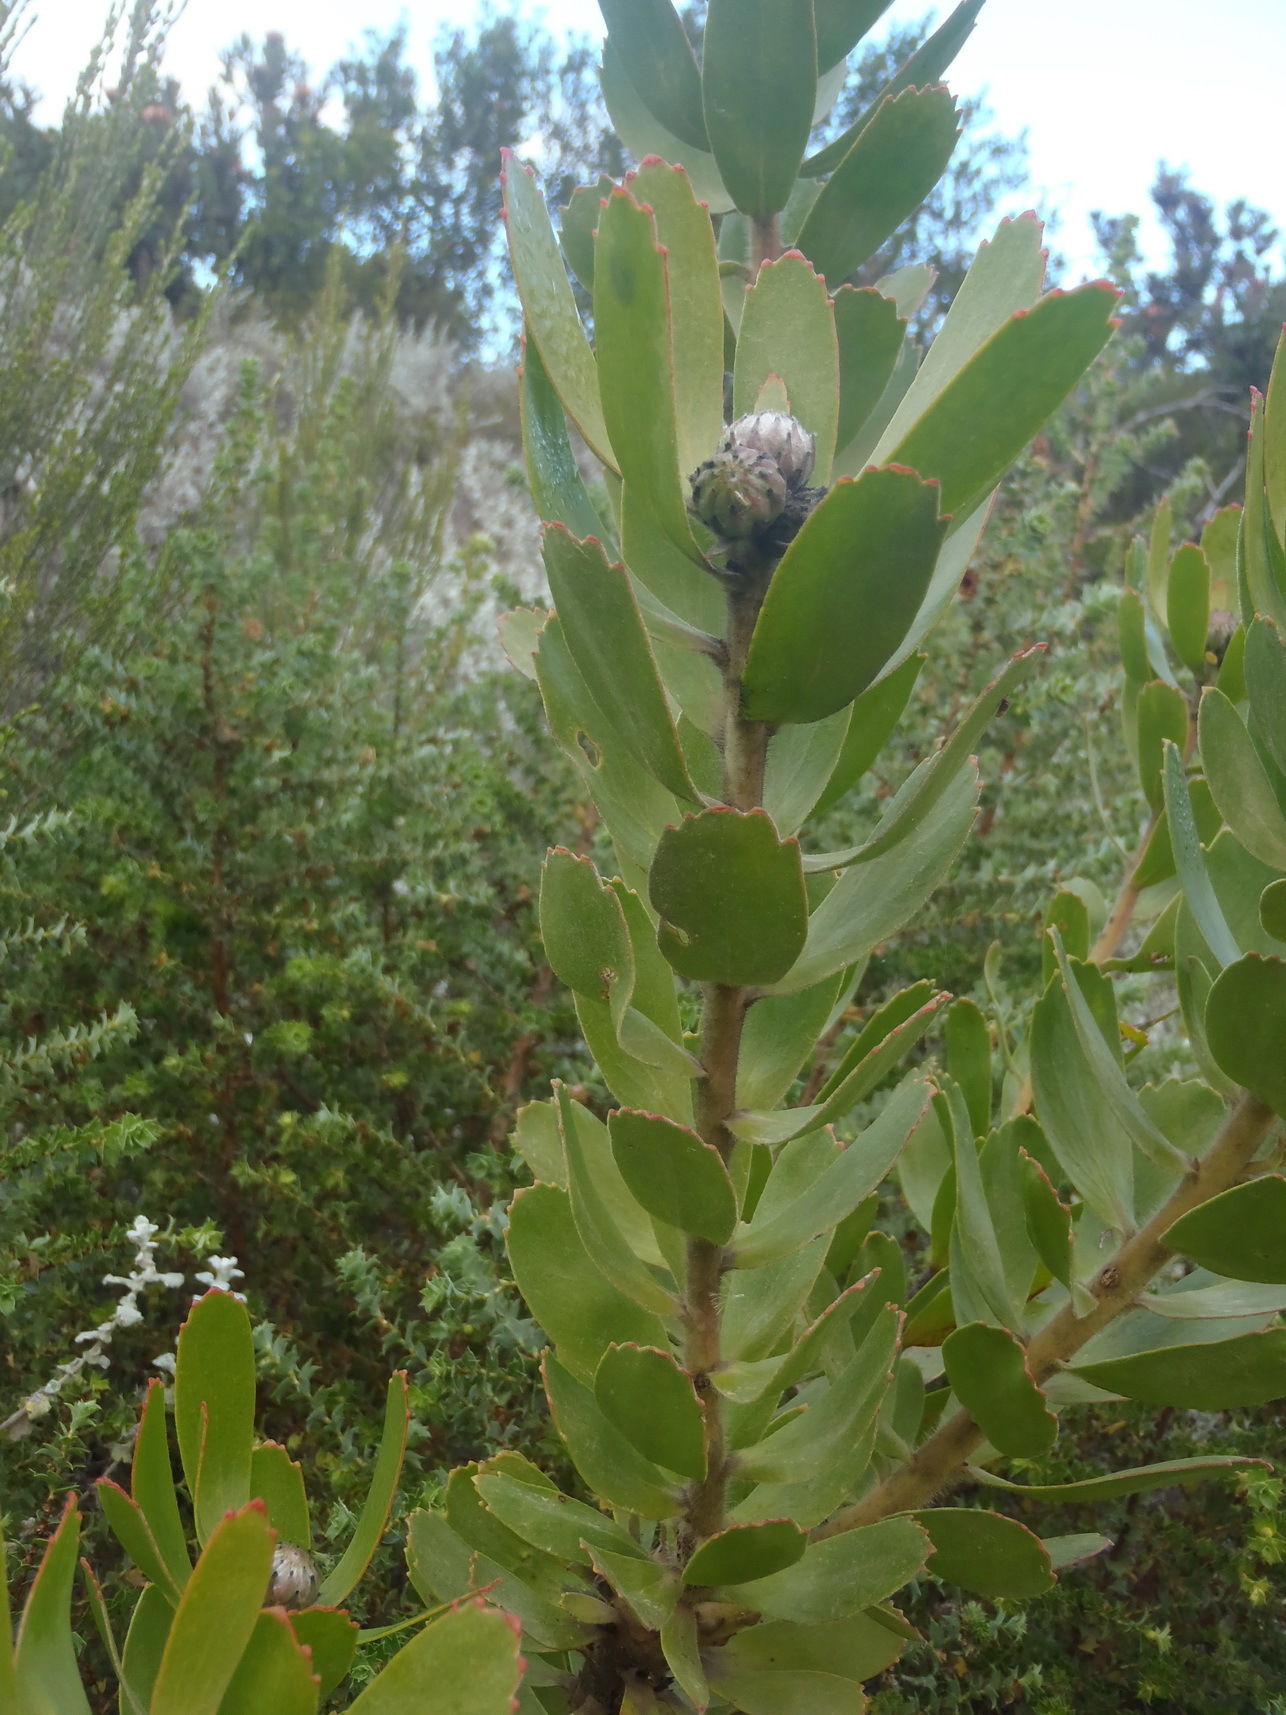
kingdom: Plantae
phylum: Tracheophyta
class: Magnoliopsida
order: Proteales
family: Proteaceae
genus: Leucospermum
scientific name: Leucospermum praecox
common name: Mossel bay pincushion
